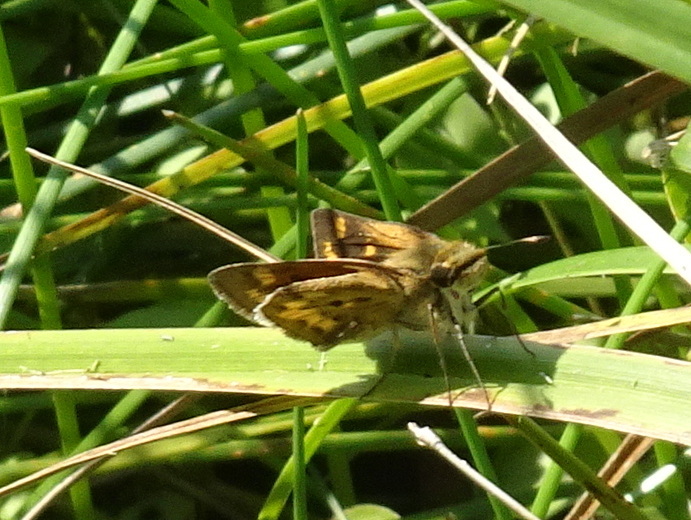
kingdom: Animalia
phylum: Arthropoda
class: Insecta
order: Lepidoptera
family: Hesperiidae
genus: Hylephila
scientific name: Hylephila phyleus
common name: Fiery skipper
